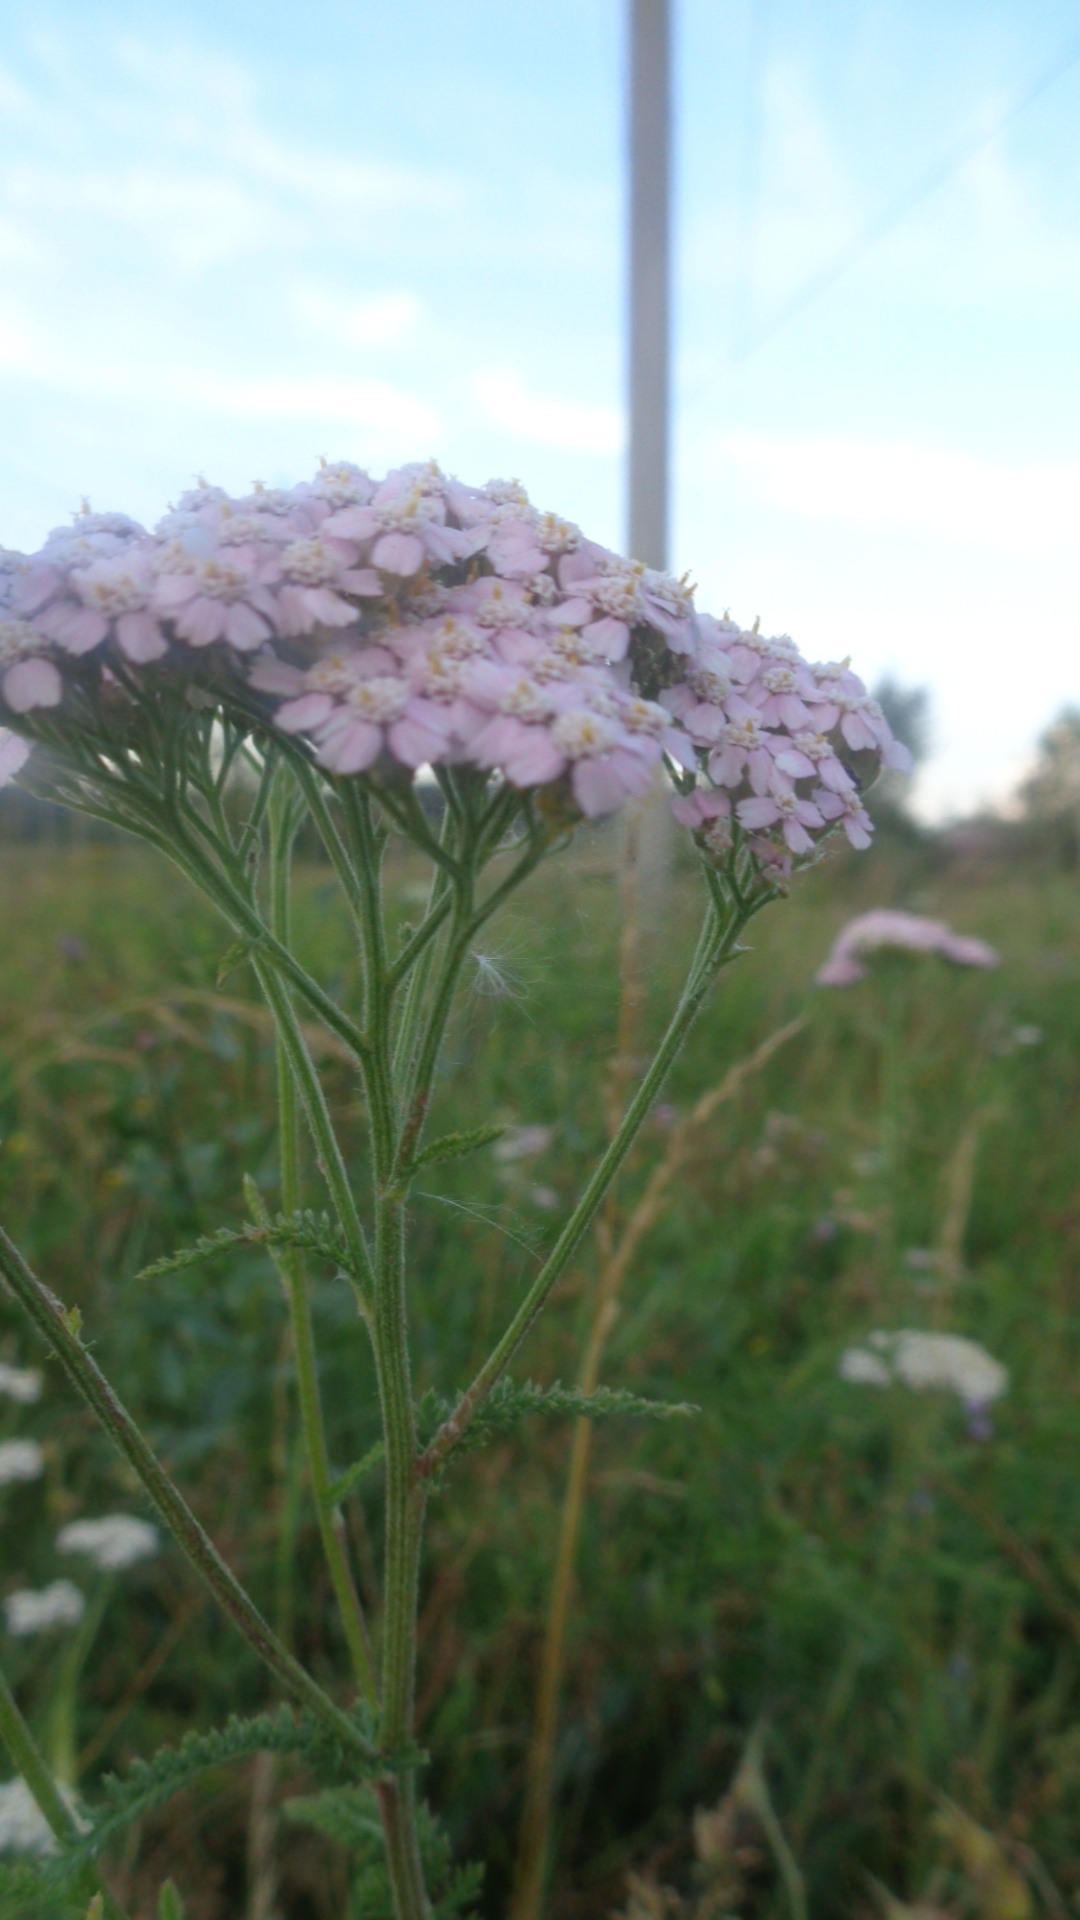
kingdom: Plantae
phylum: Tracheophyta
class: Magnoliopsida
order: Asterales
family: Asteraceae
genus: Achillea
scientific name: Achillea asiatica
